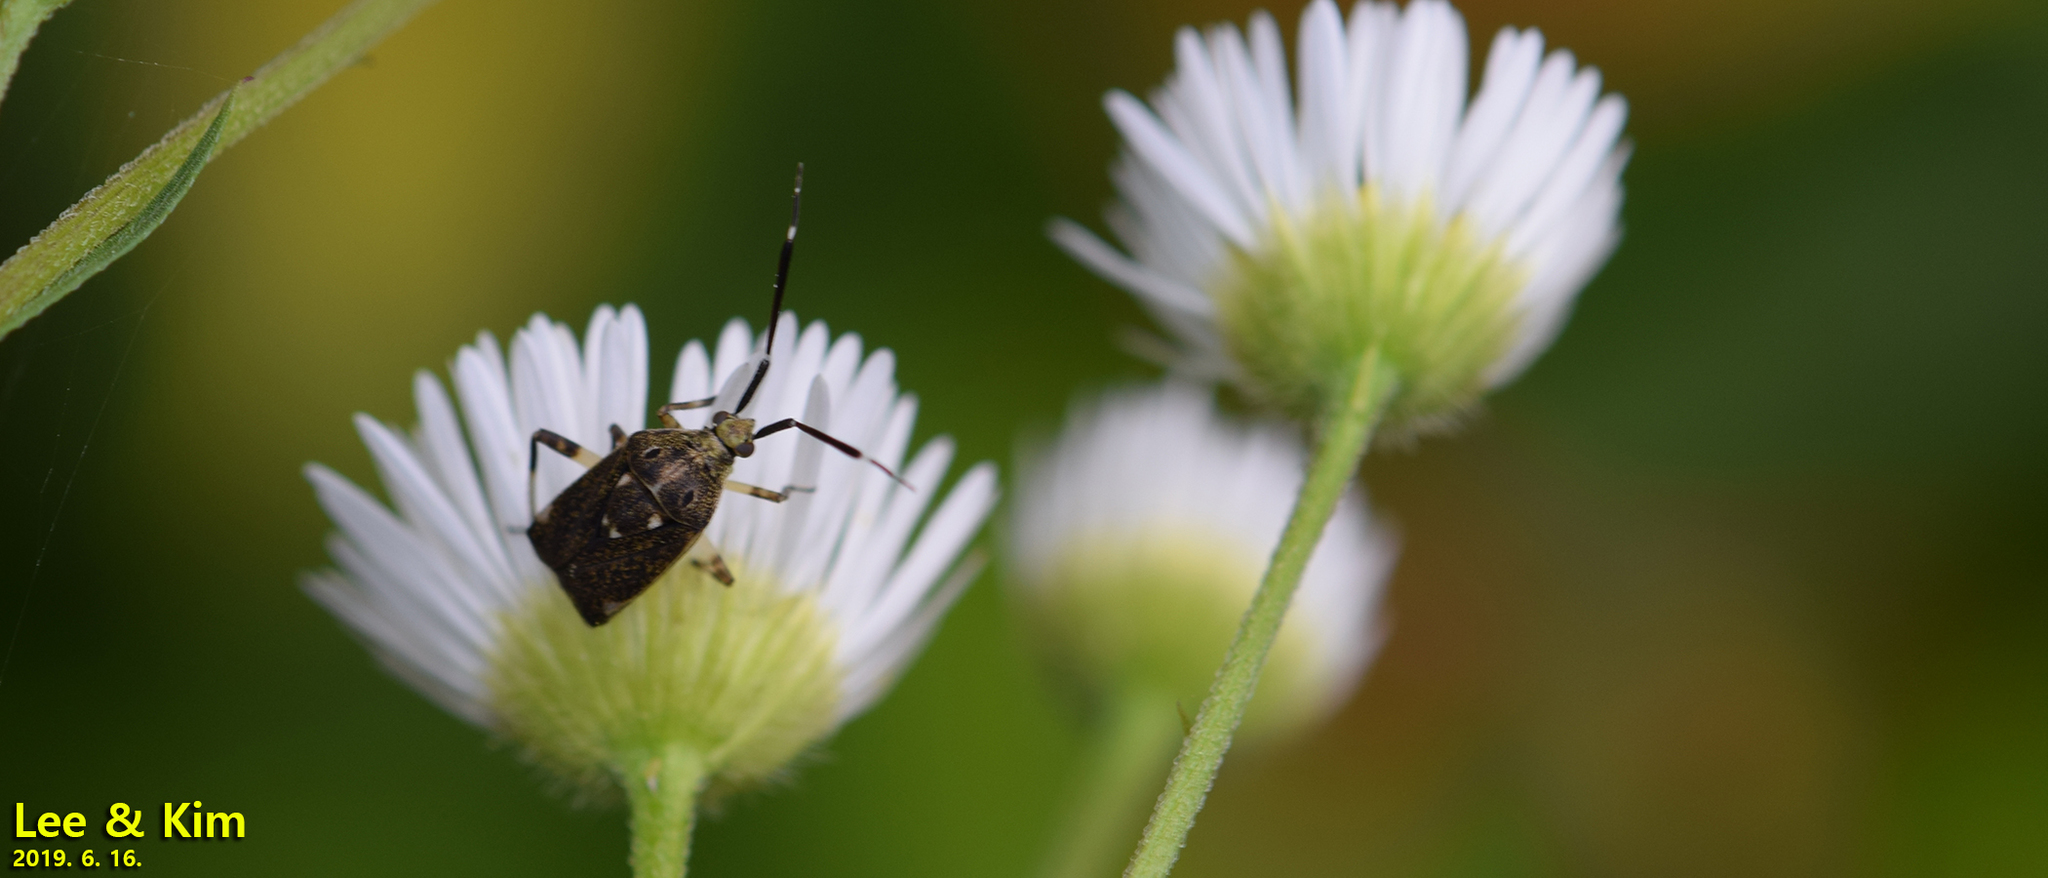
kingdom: Animalia
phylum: Arthropoda
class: Insecta
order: Hemiptera
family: Miridae
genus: Eurystylus
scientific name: Eurystylus coelestialium
